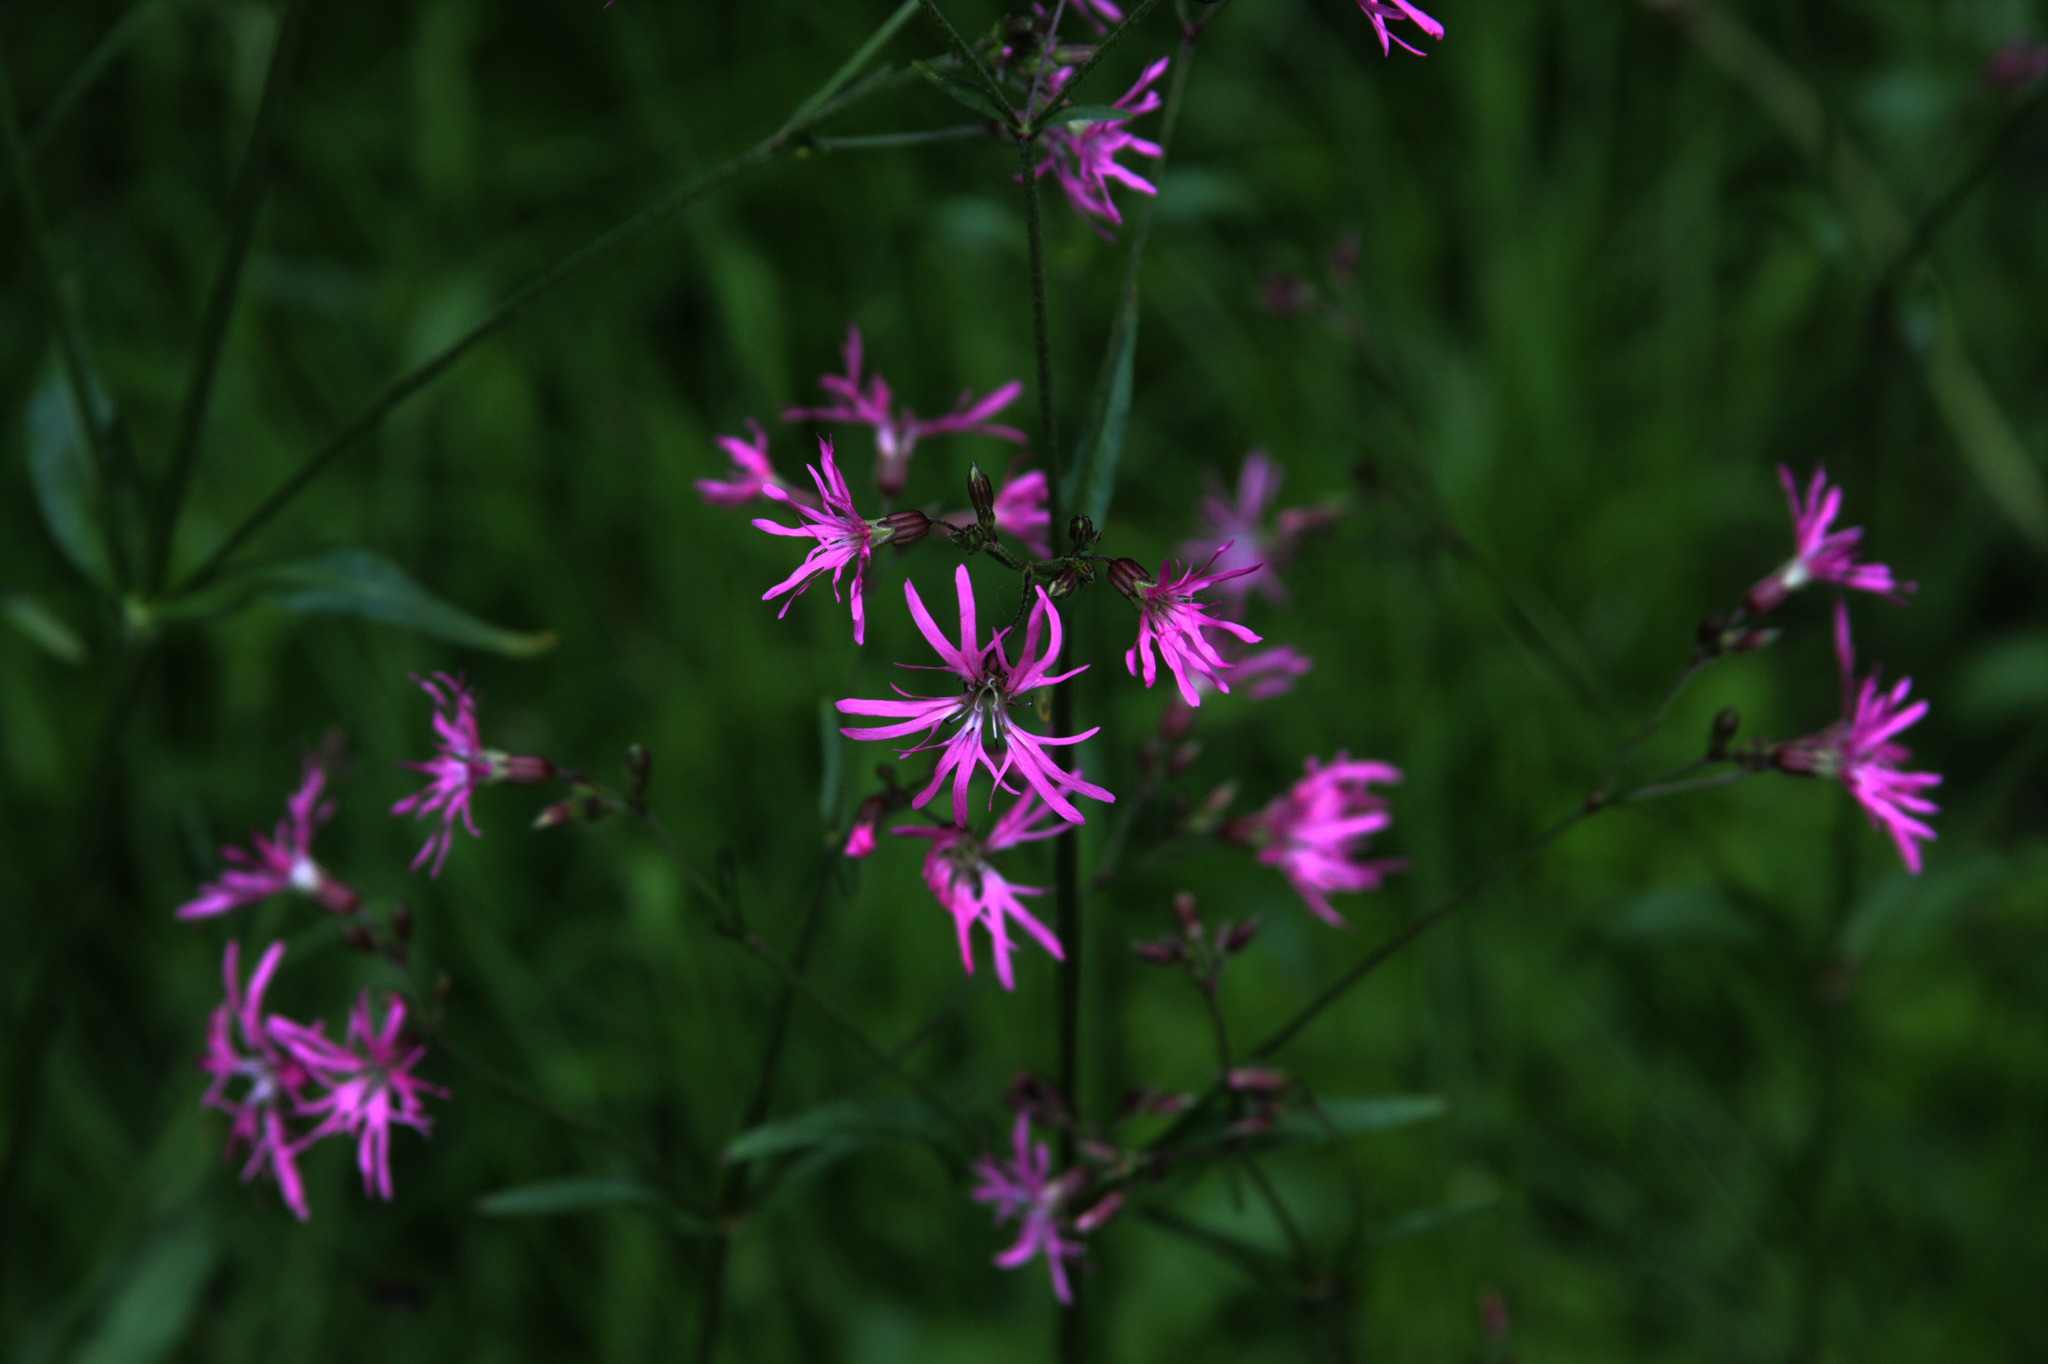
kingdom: Plantae
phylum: Tracheophyta
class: Magnoliopsida
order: Caryophyllales
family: Caryophyllaceae
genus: Silene
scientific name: Silene flos-cuculi
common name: Ragged-robin
